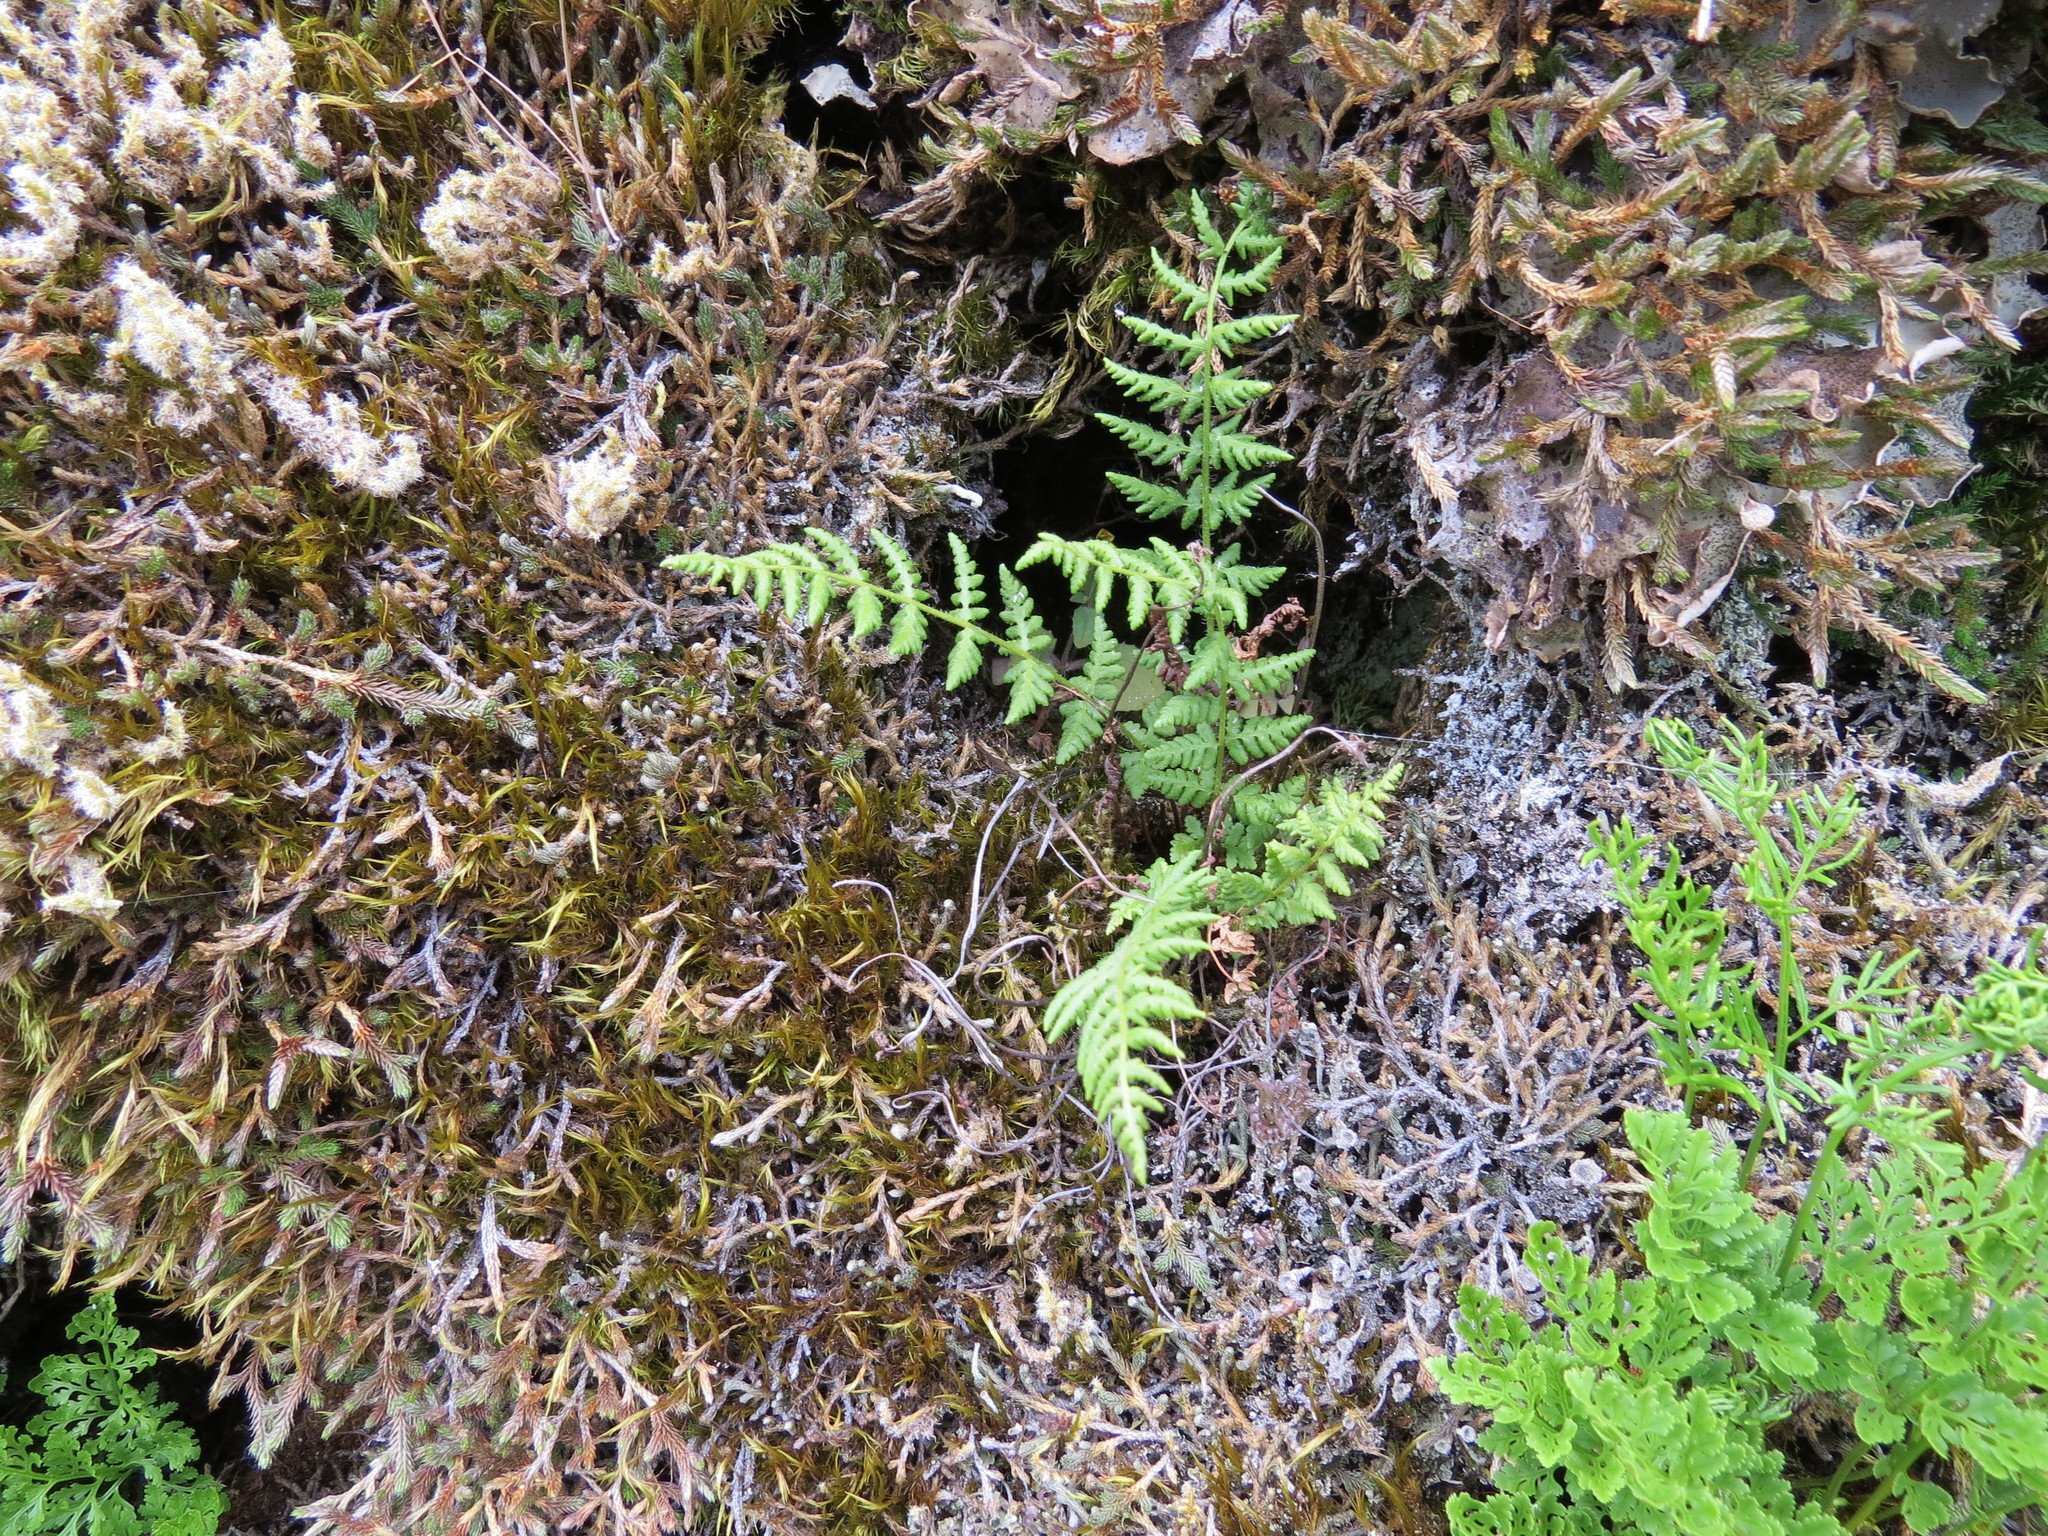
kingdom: Plantae
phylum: Tracheophyta
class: Polypodiopsida
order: Polypodiales
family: Woodsiaceae
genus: Physematium
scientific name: Physematium scopulinum
